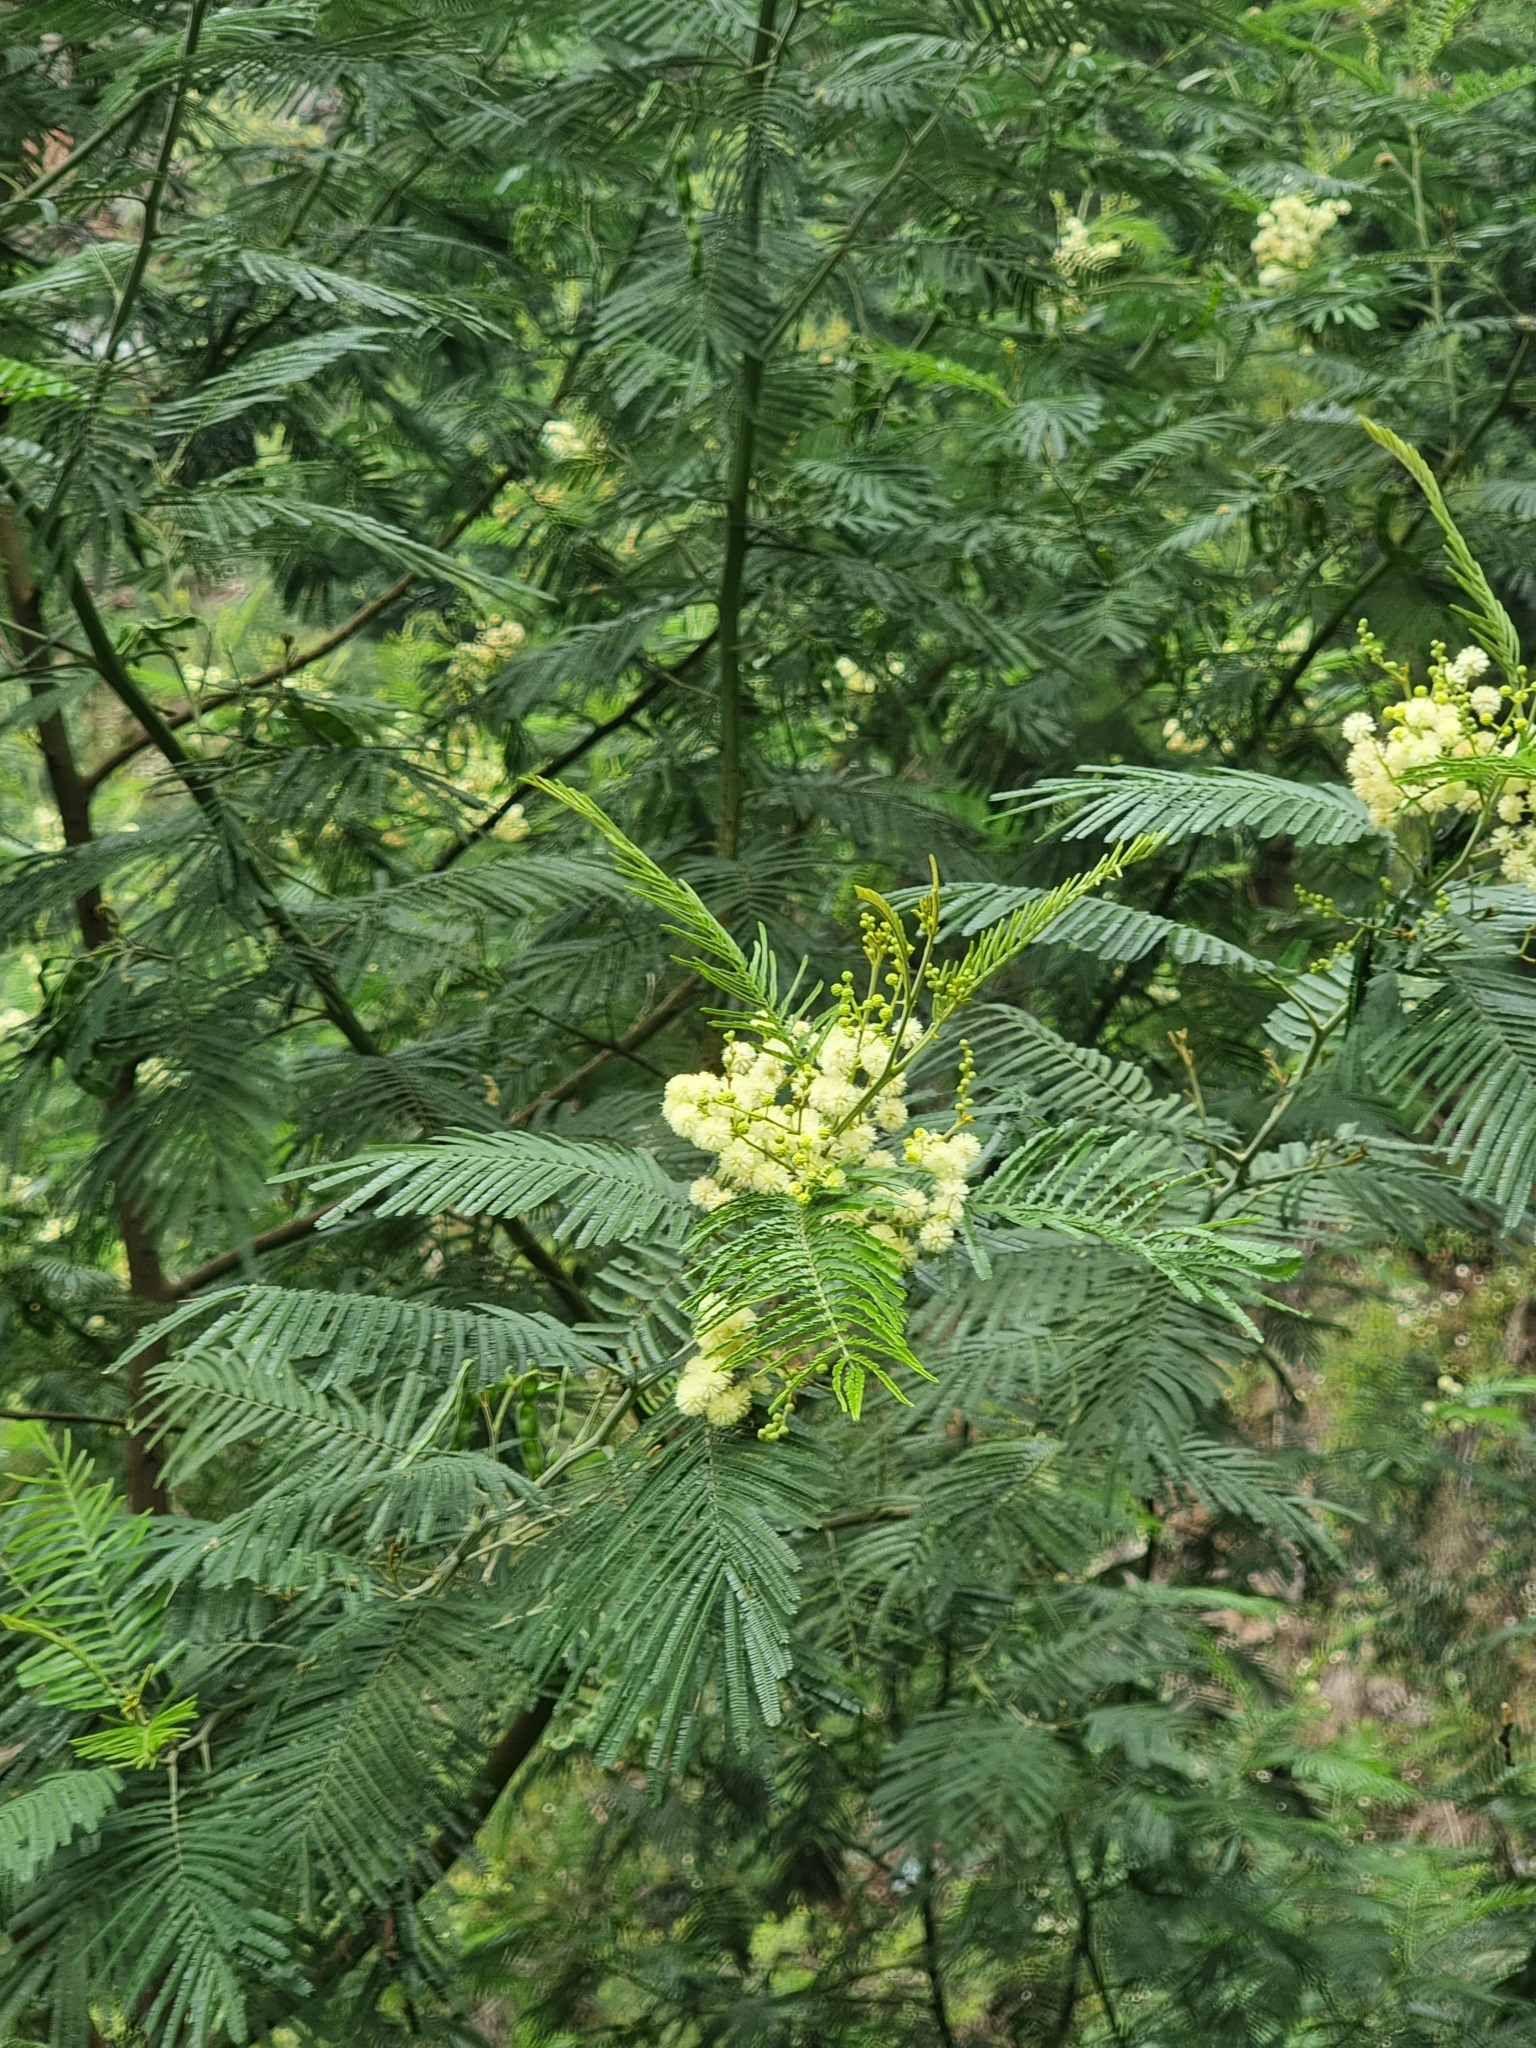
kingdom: Plantae
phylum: Tracheophyta
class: Magnoliopsida
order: Fabales
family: Fabaceae
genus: Acacia
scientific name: Acacia mearnsii
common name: Black wattle
